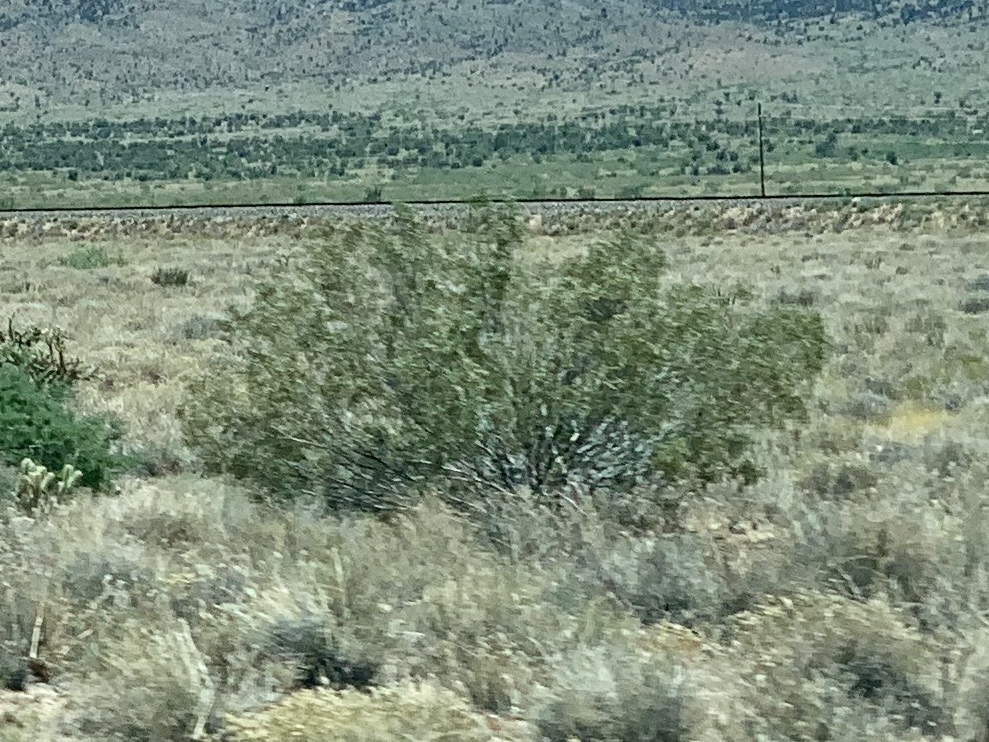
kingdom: Plantae
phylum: Tracheophyta
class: Magnoliopsida
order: Zygophyllales
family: Zygophyllaceae
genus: Larrea
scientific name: Larrea tridentata
